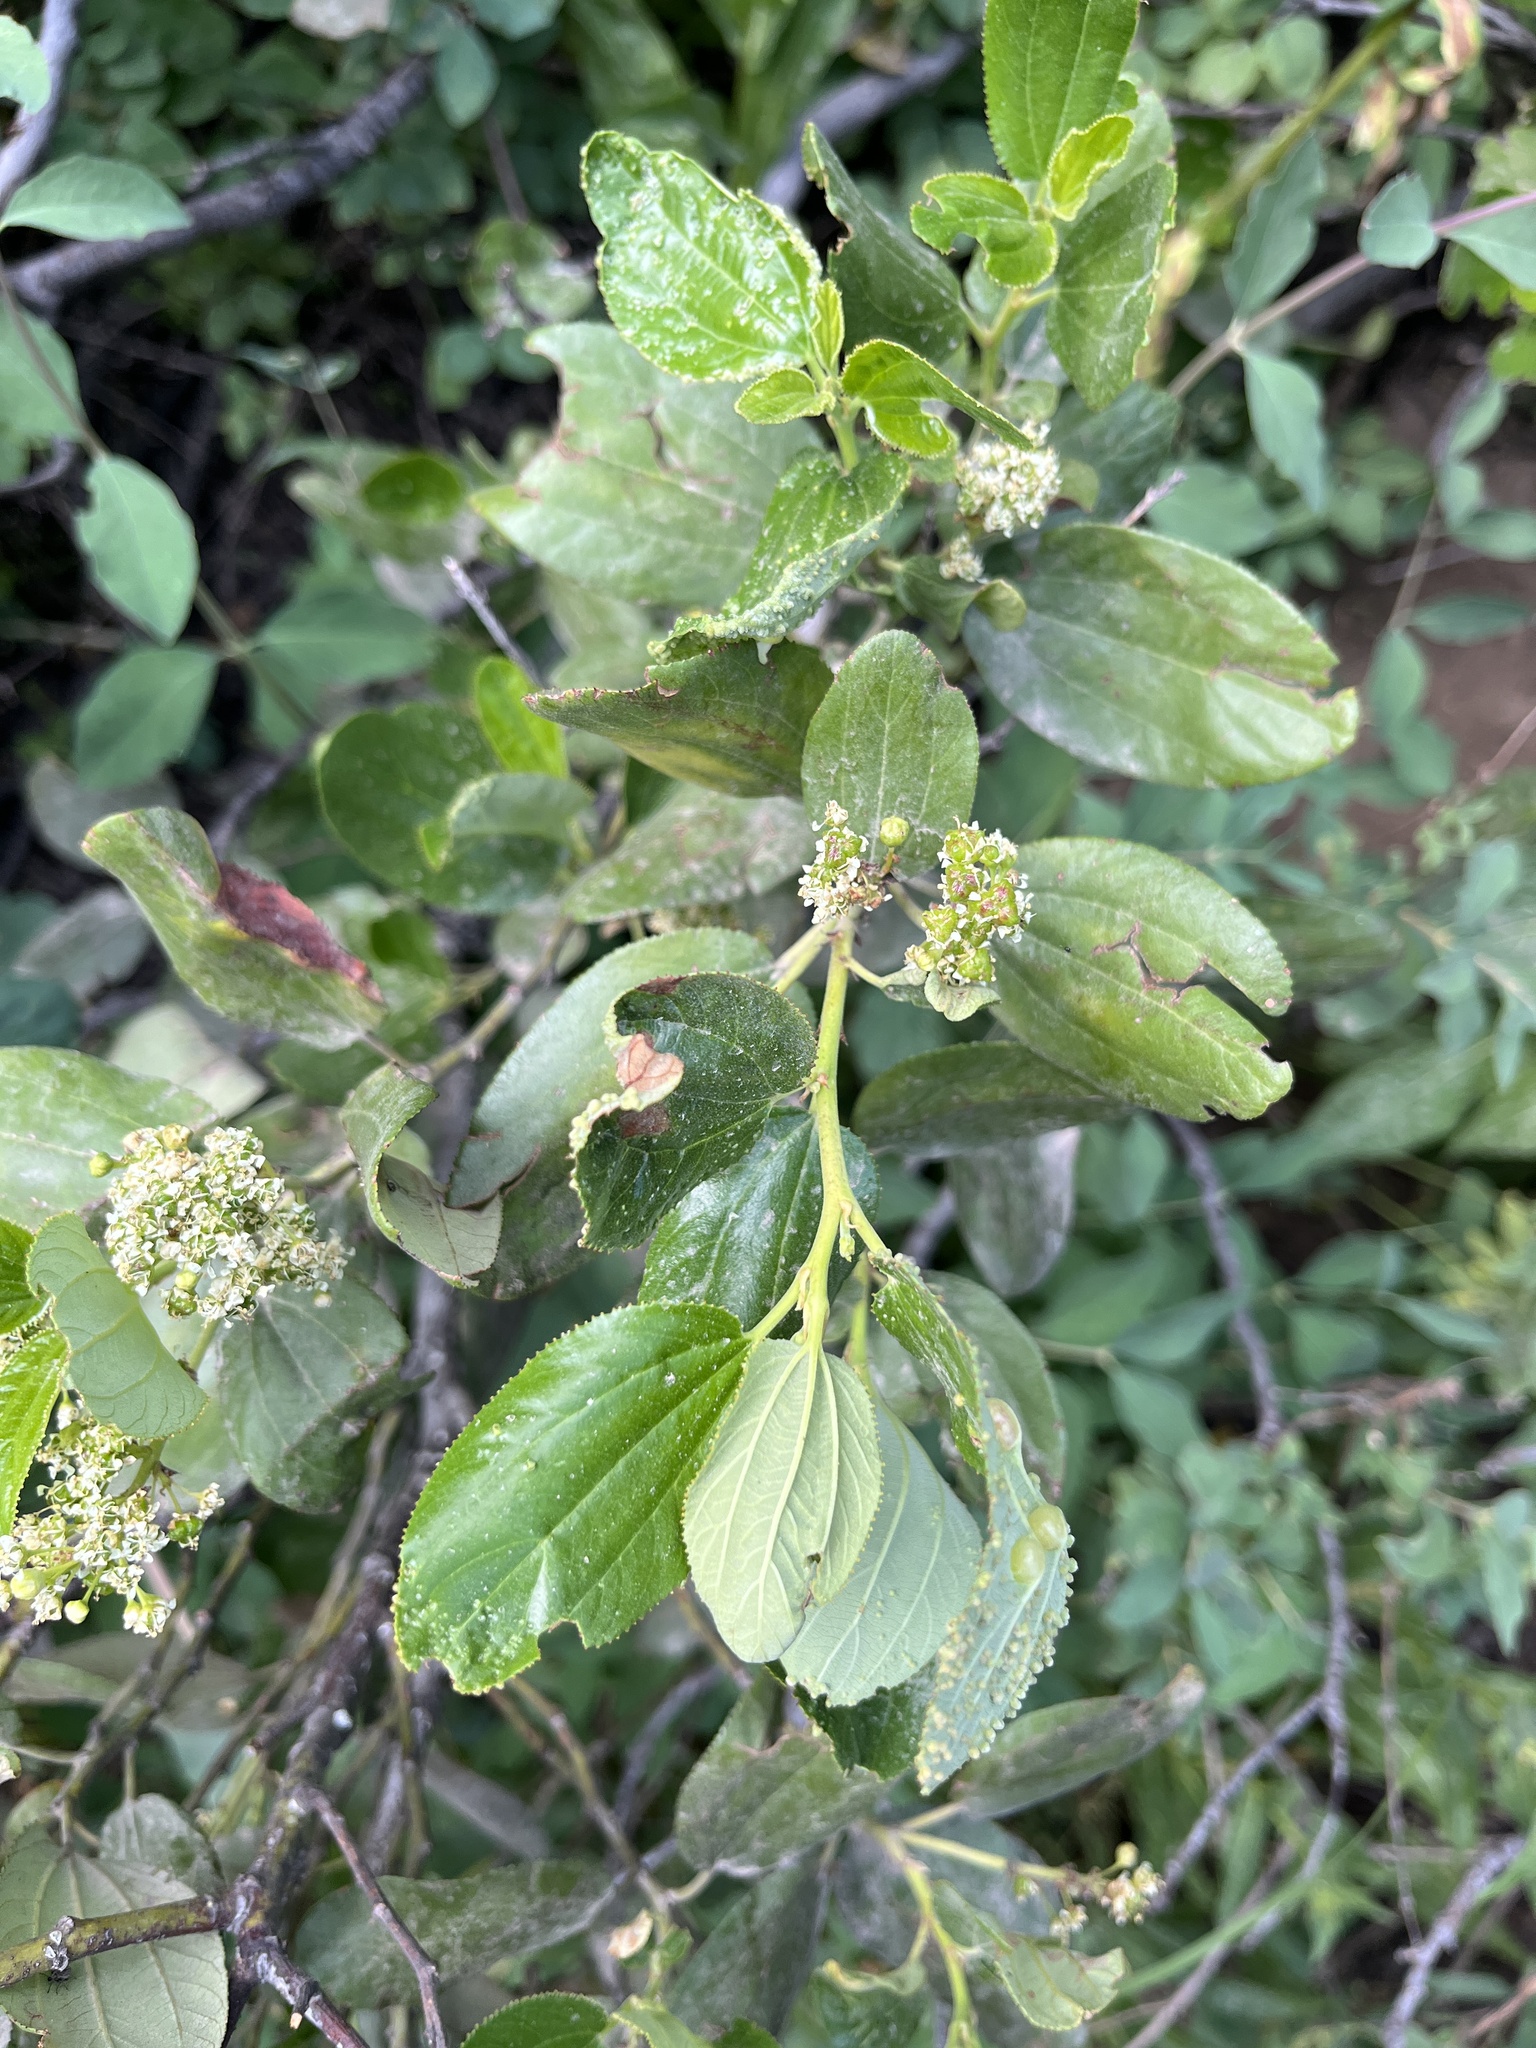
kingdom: Plantae
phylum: Tracheophyta
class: Magnoliopsida
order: Rosales
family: Rhamnaceae
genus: Ceanothus
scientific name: Ceanothus velutinus
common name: Snowbrush
